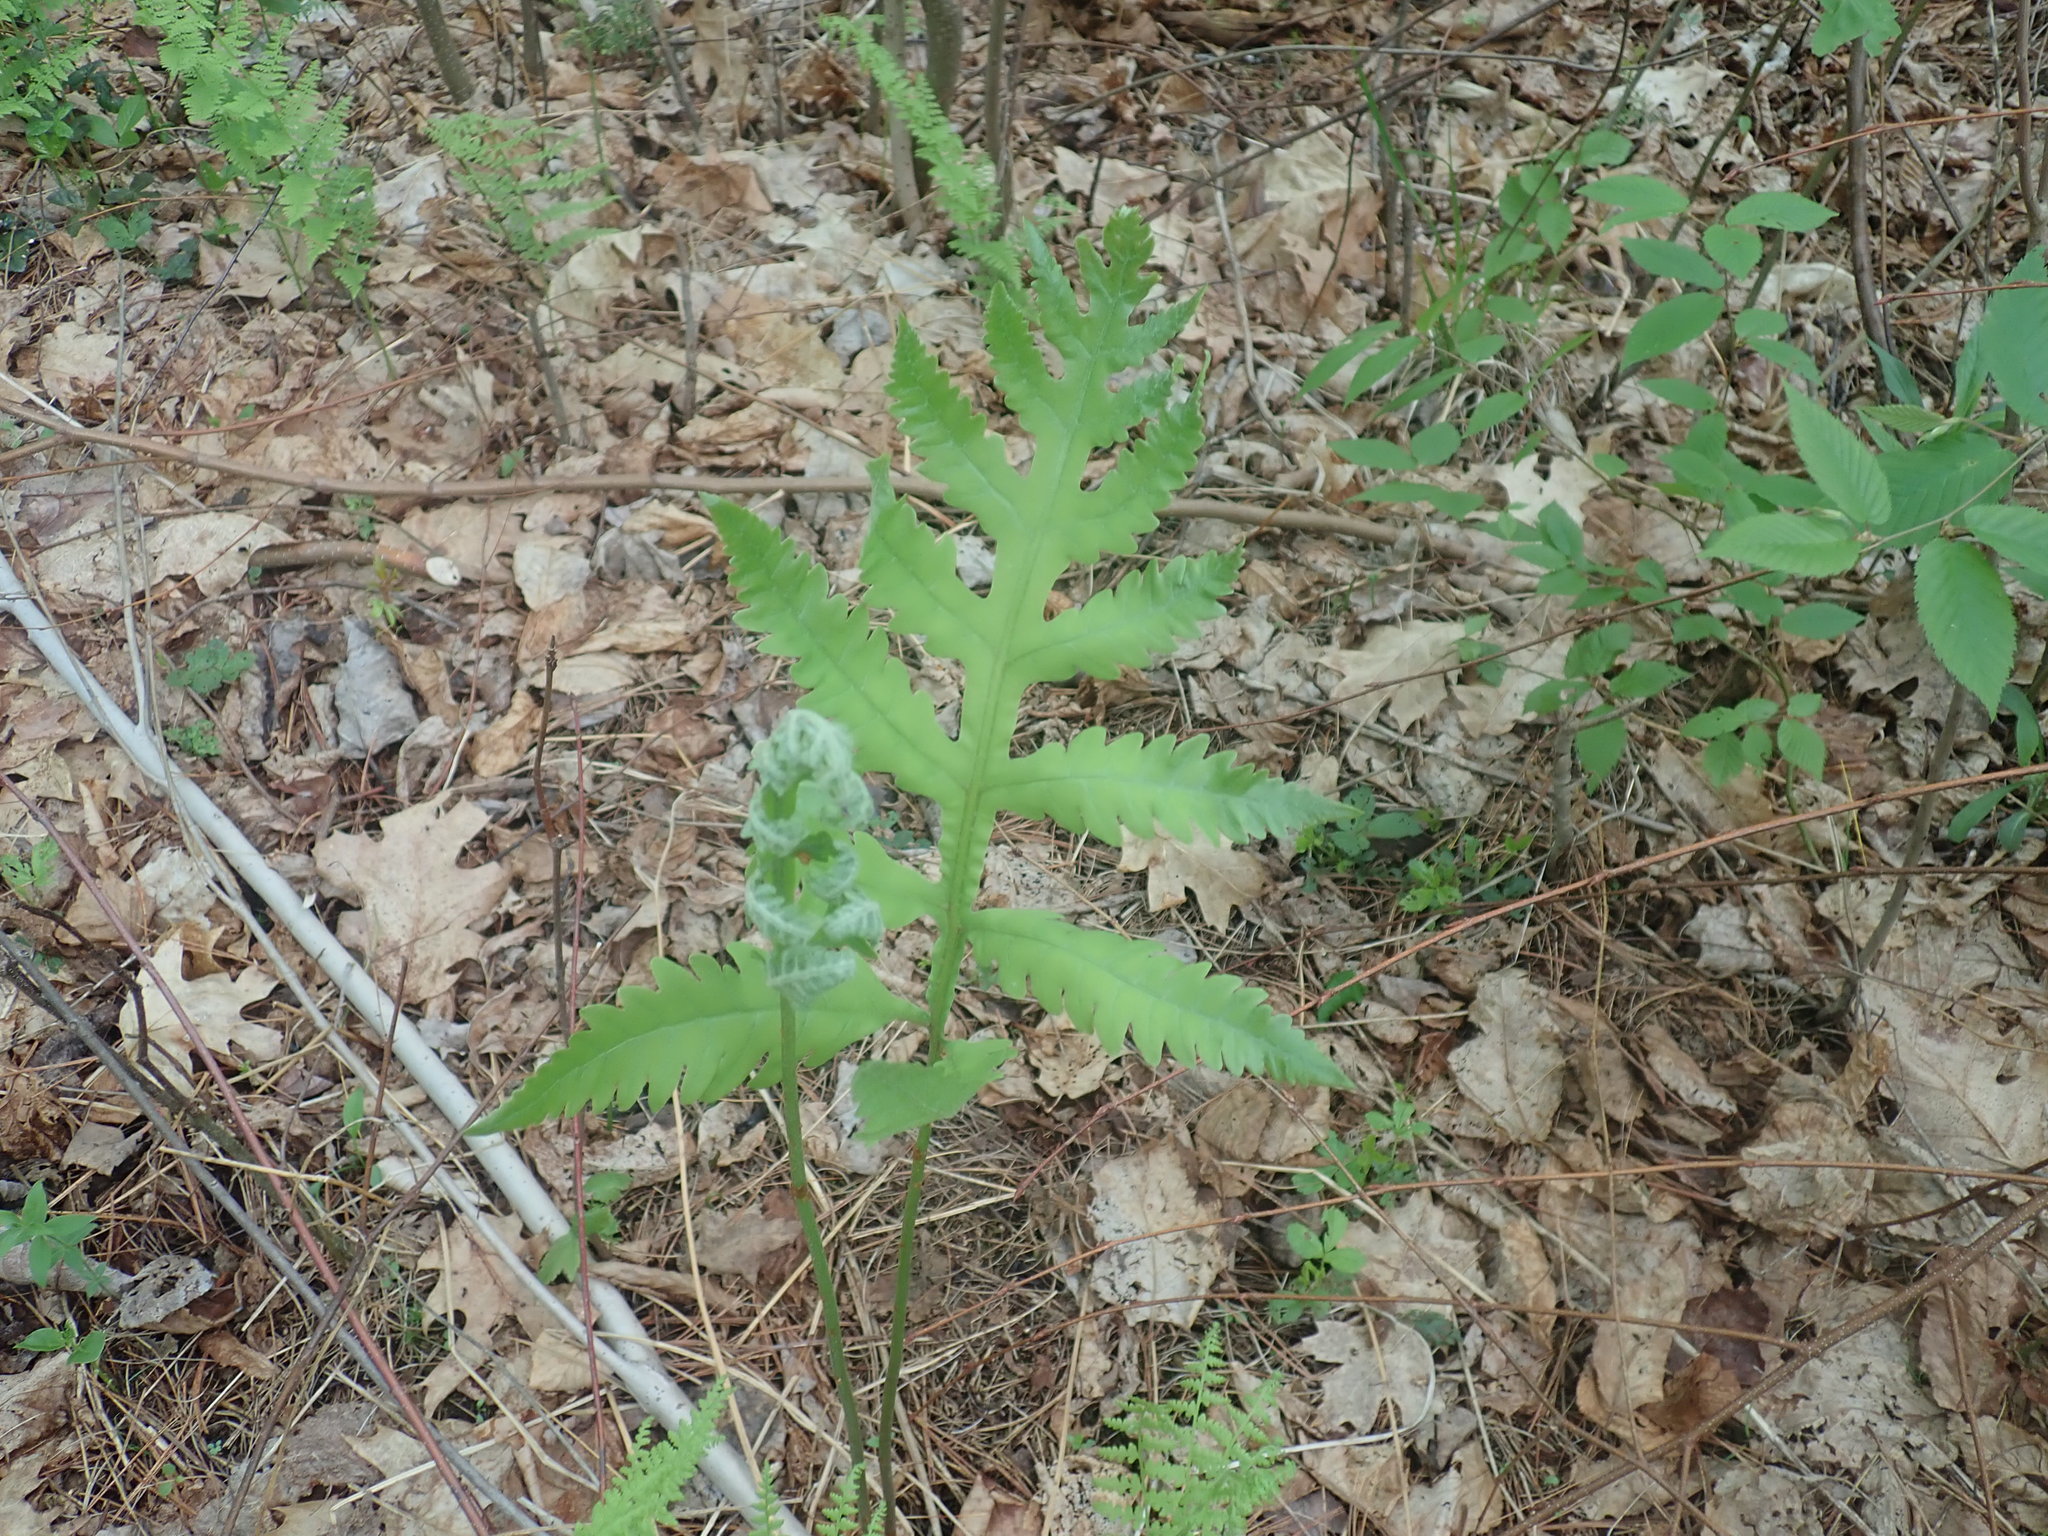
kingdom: Plantae
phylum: Tracheophyta
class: Polypodiopsida
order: Polypodiales
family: Onocleaceae
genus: Onoclea
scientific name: Onoclea sensibilis
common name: Sensitive fern
